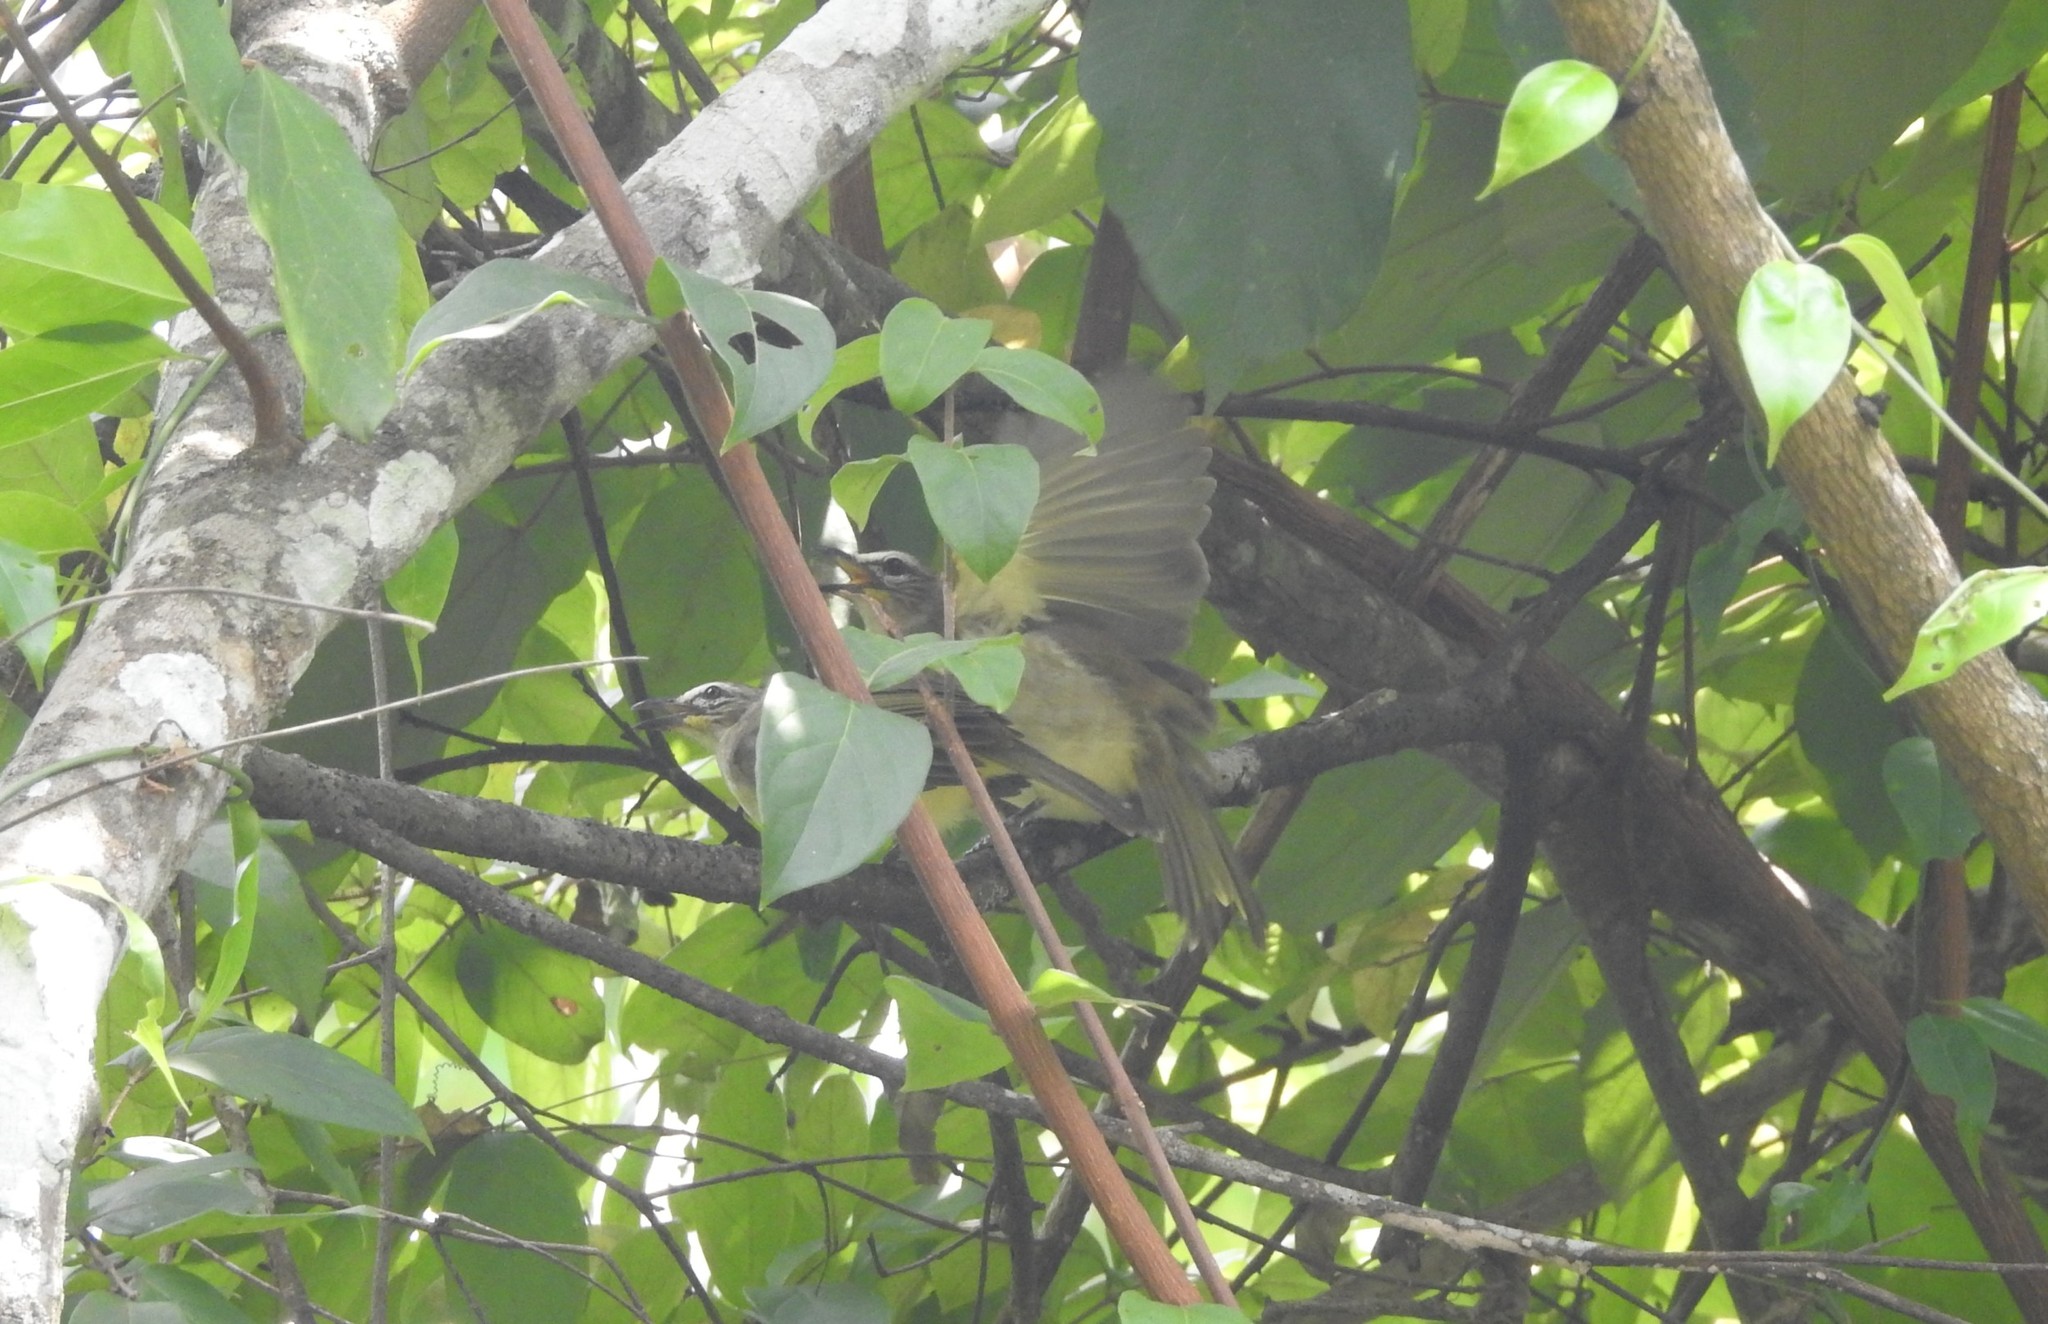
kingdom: Animalia
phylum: Chordata
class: Aves
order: Passeriformes
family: Pycnonotidae
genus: Pycnonotus
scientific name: Pycnonotus luteolus
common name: White-browed bulbul
